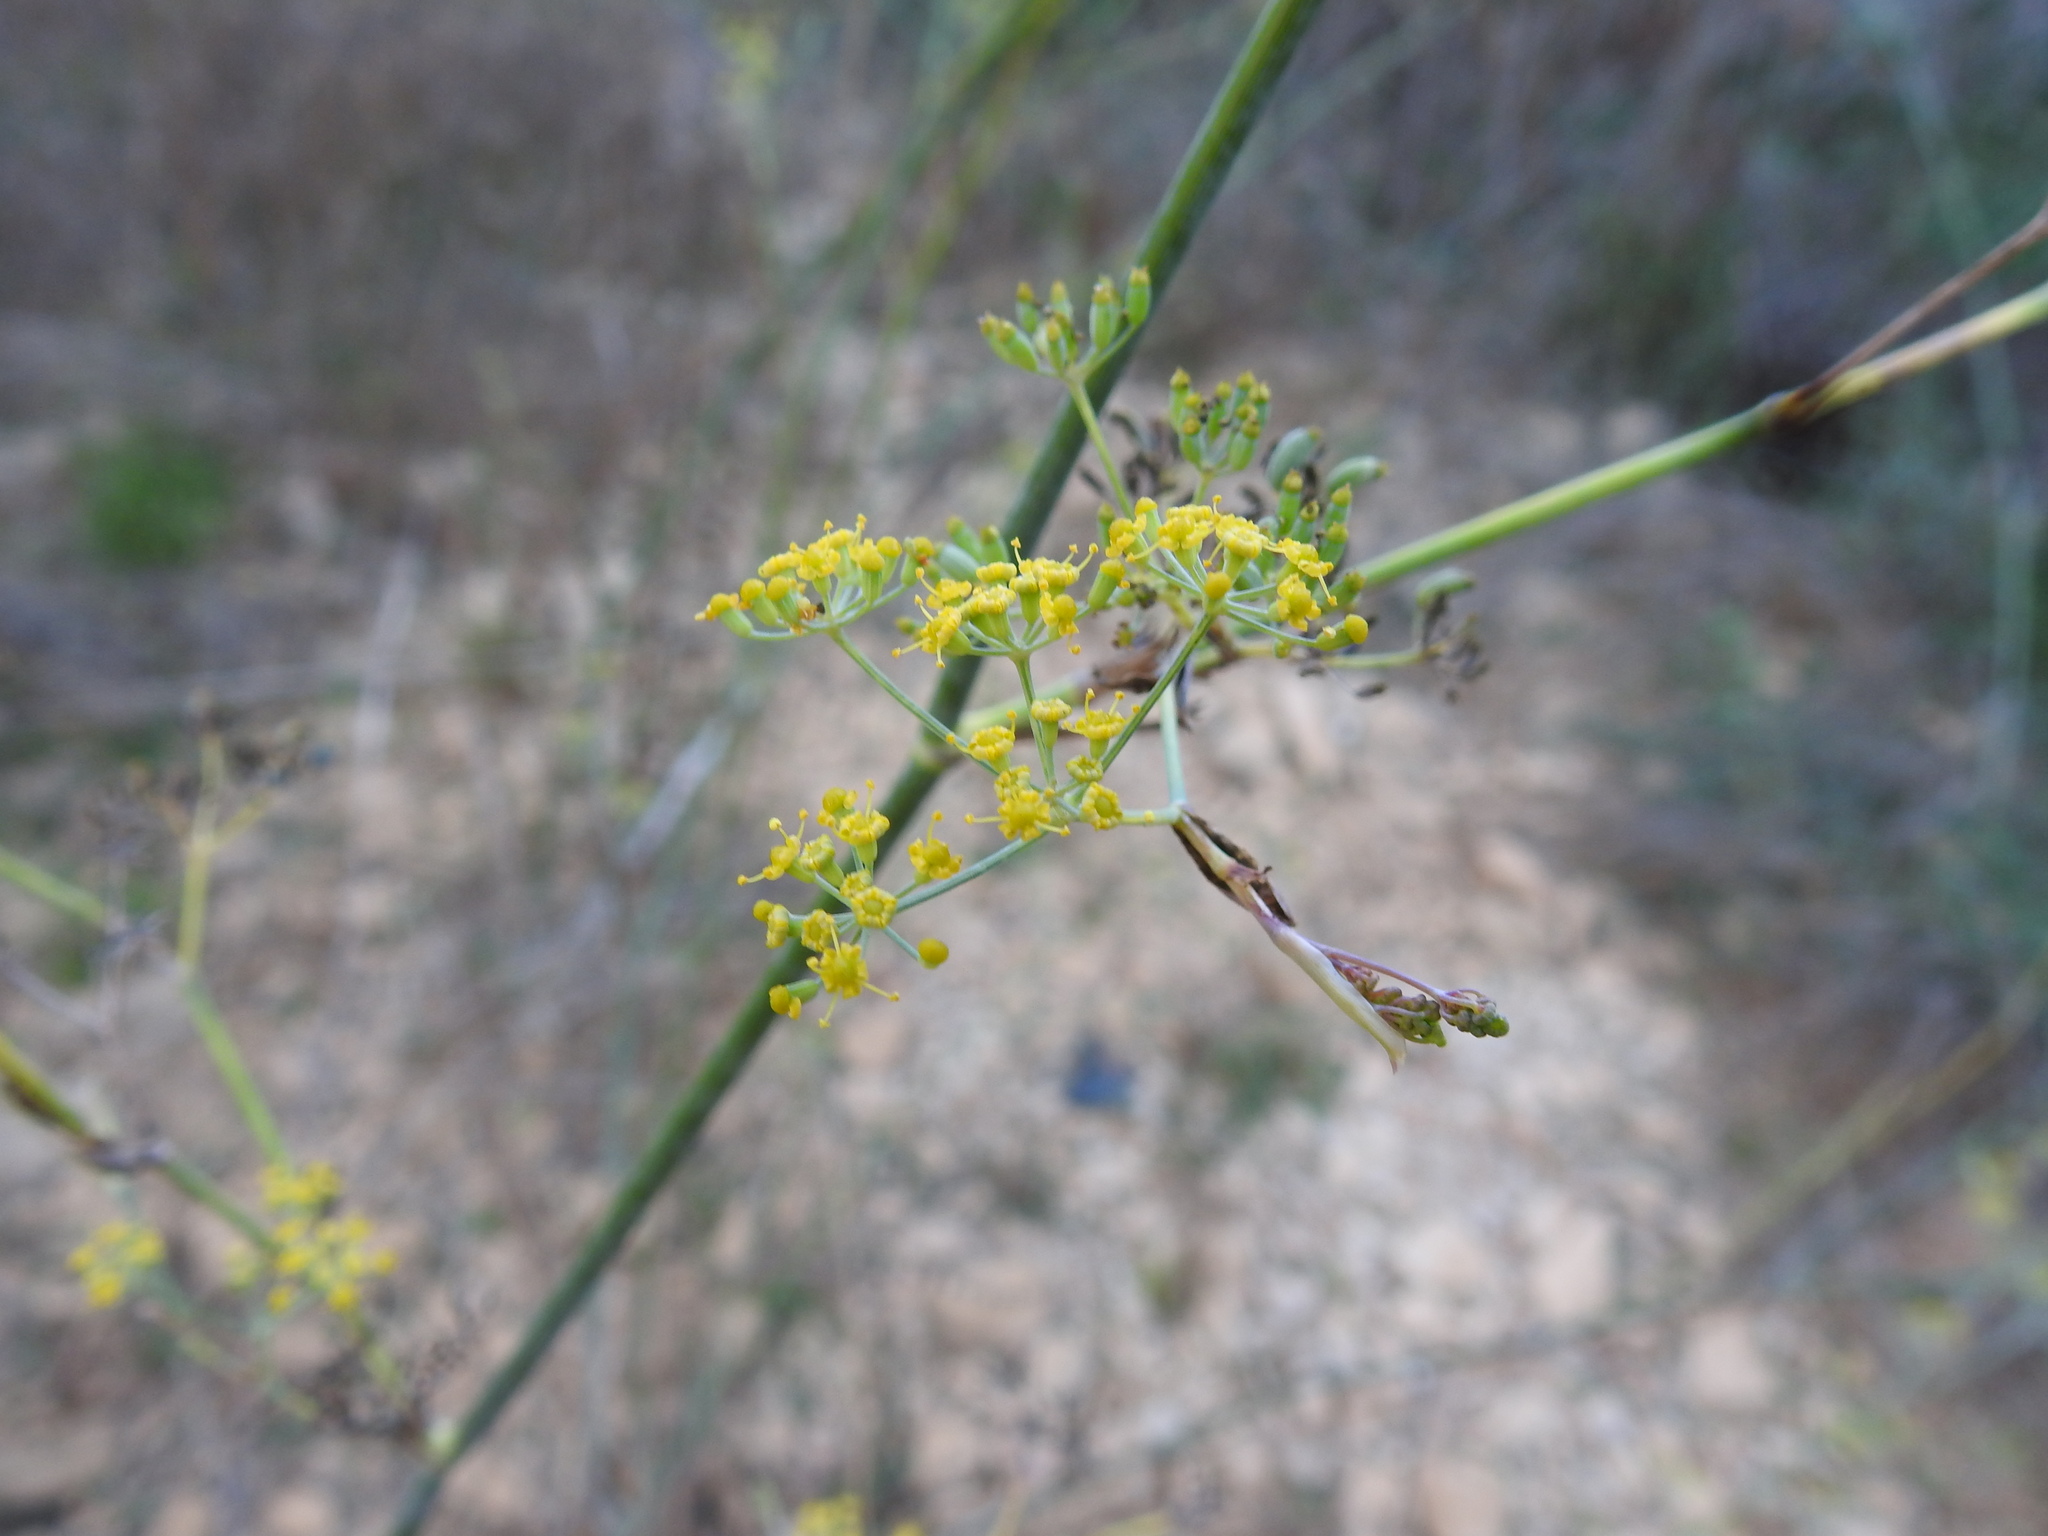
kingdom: Plantae
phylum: Tracheophyta
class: Magnoliopsida
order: Apiales
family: Apiaceae
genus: Foeniculum
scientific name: Foeniculum vulgare
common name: Fennel
